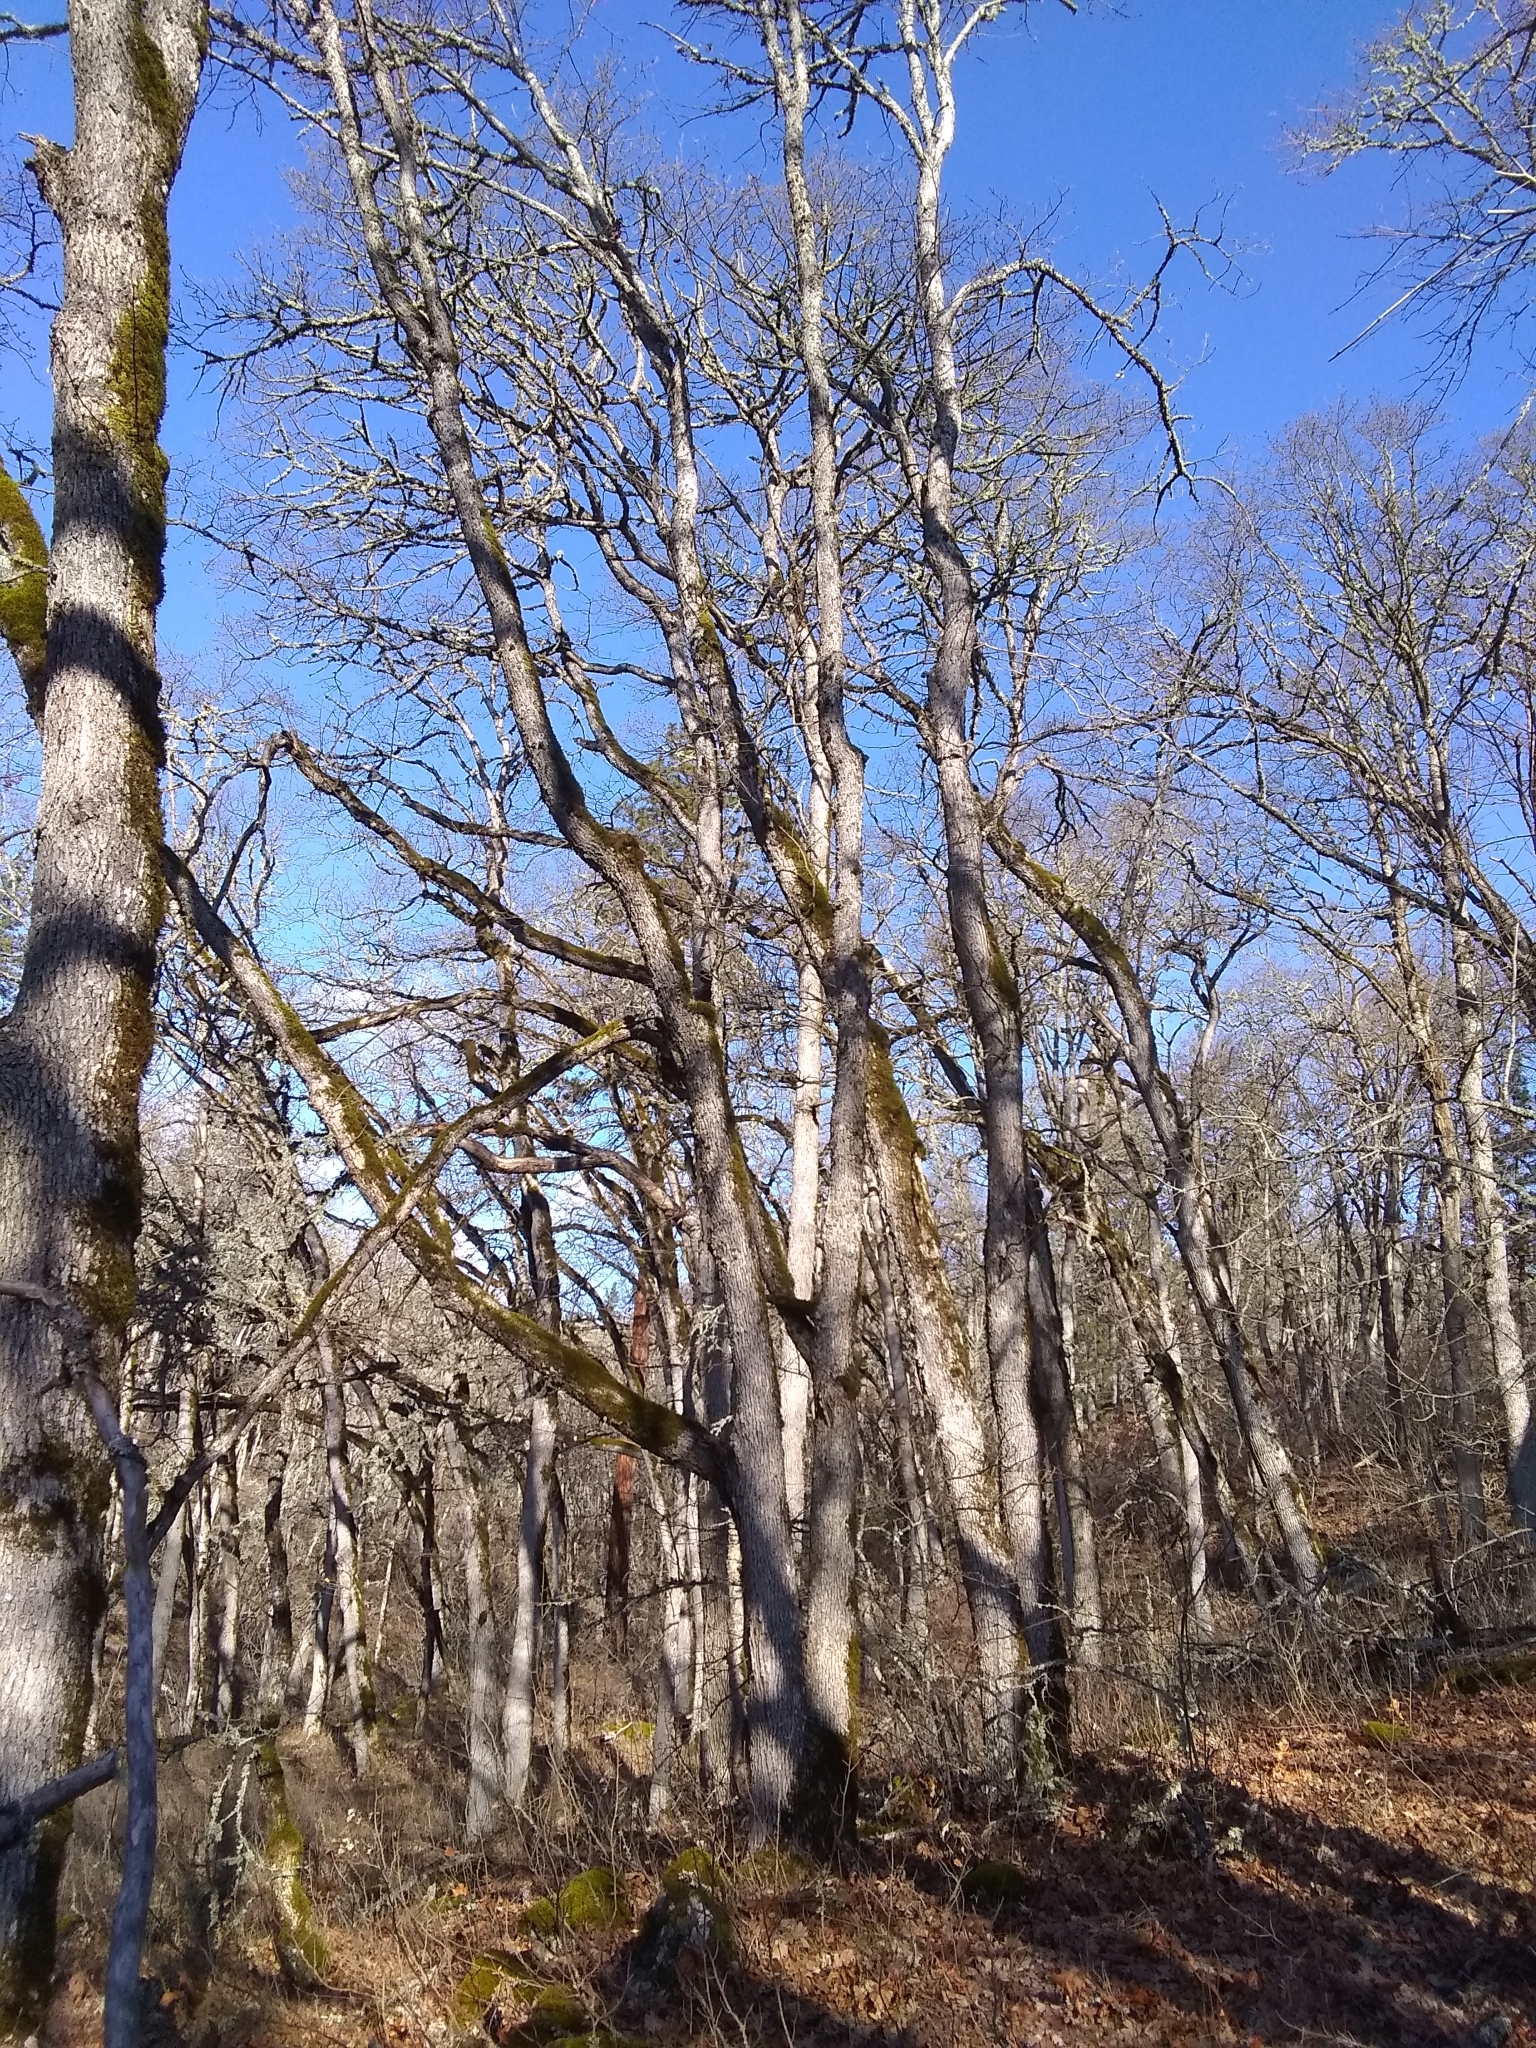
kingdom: Plantae
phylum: Tracheophyta
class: Magnoliopsida
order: Fagales
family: Fagaceae
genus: Quercus
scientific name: Quercus garryana
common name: Garry oak
